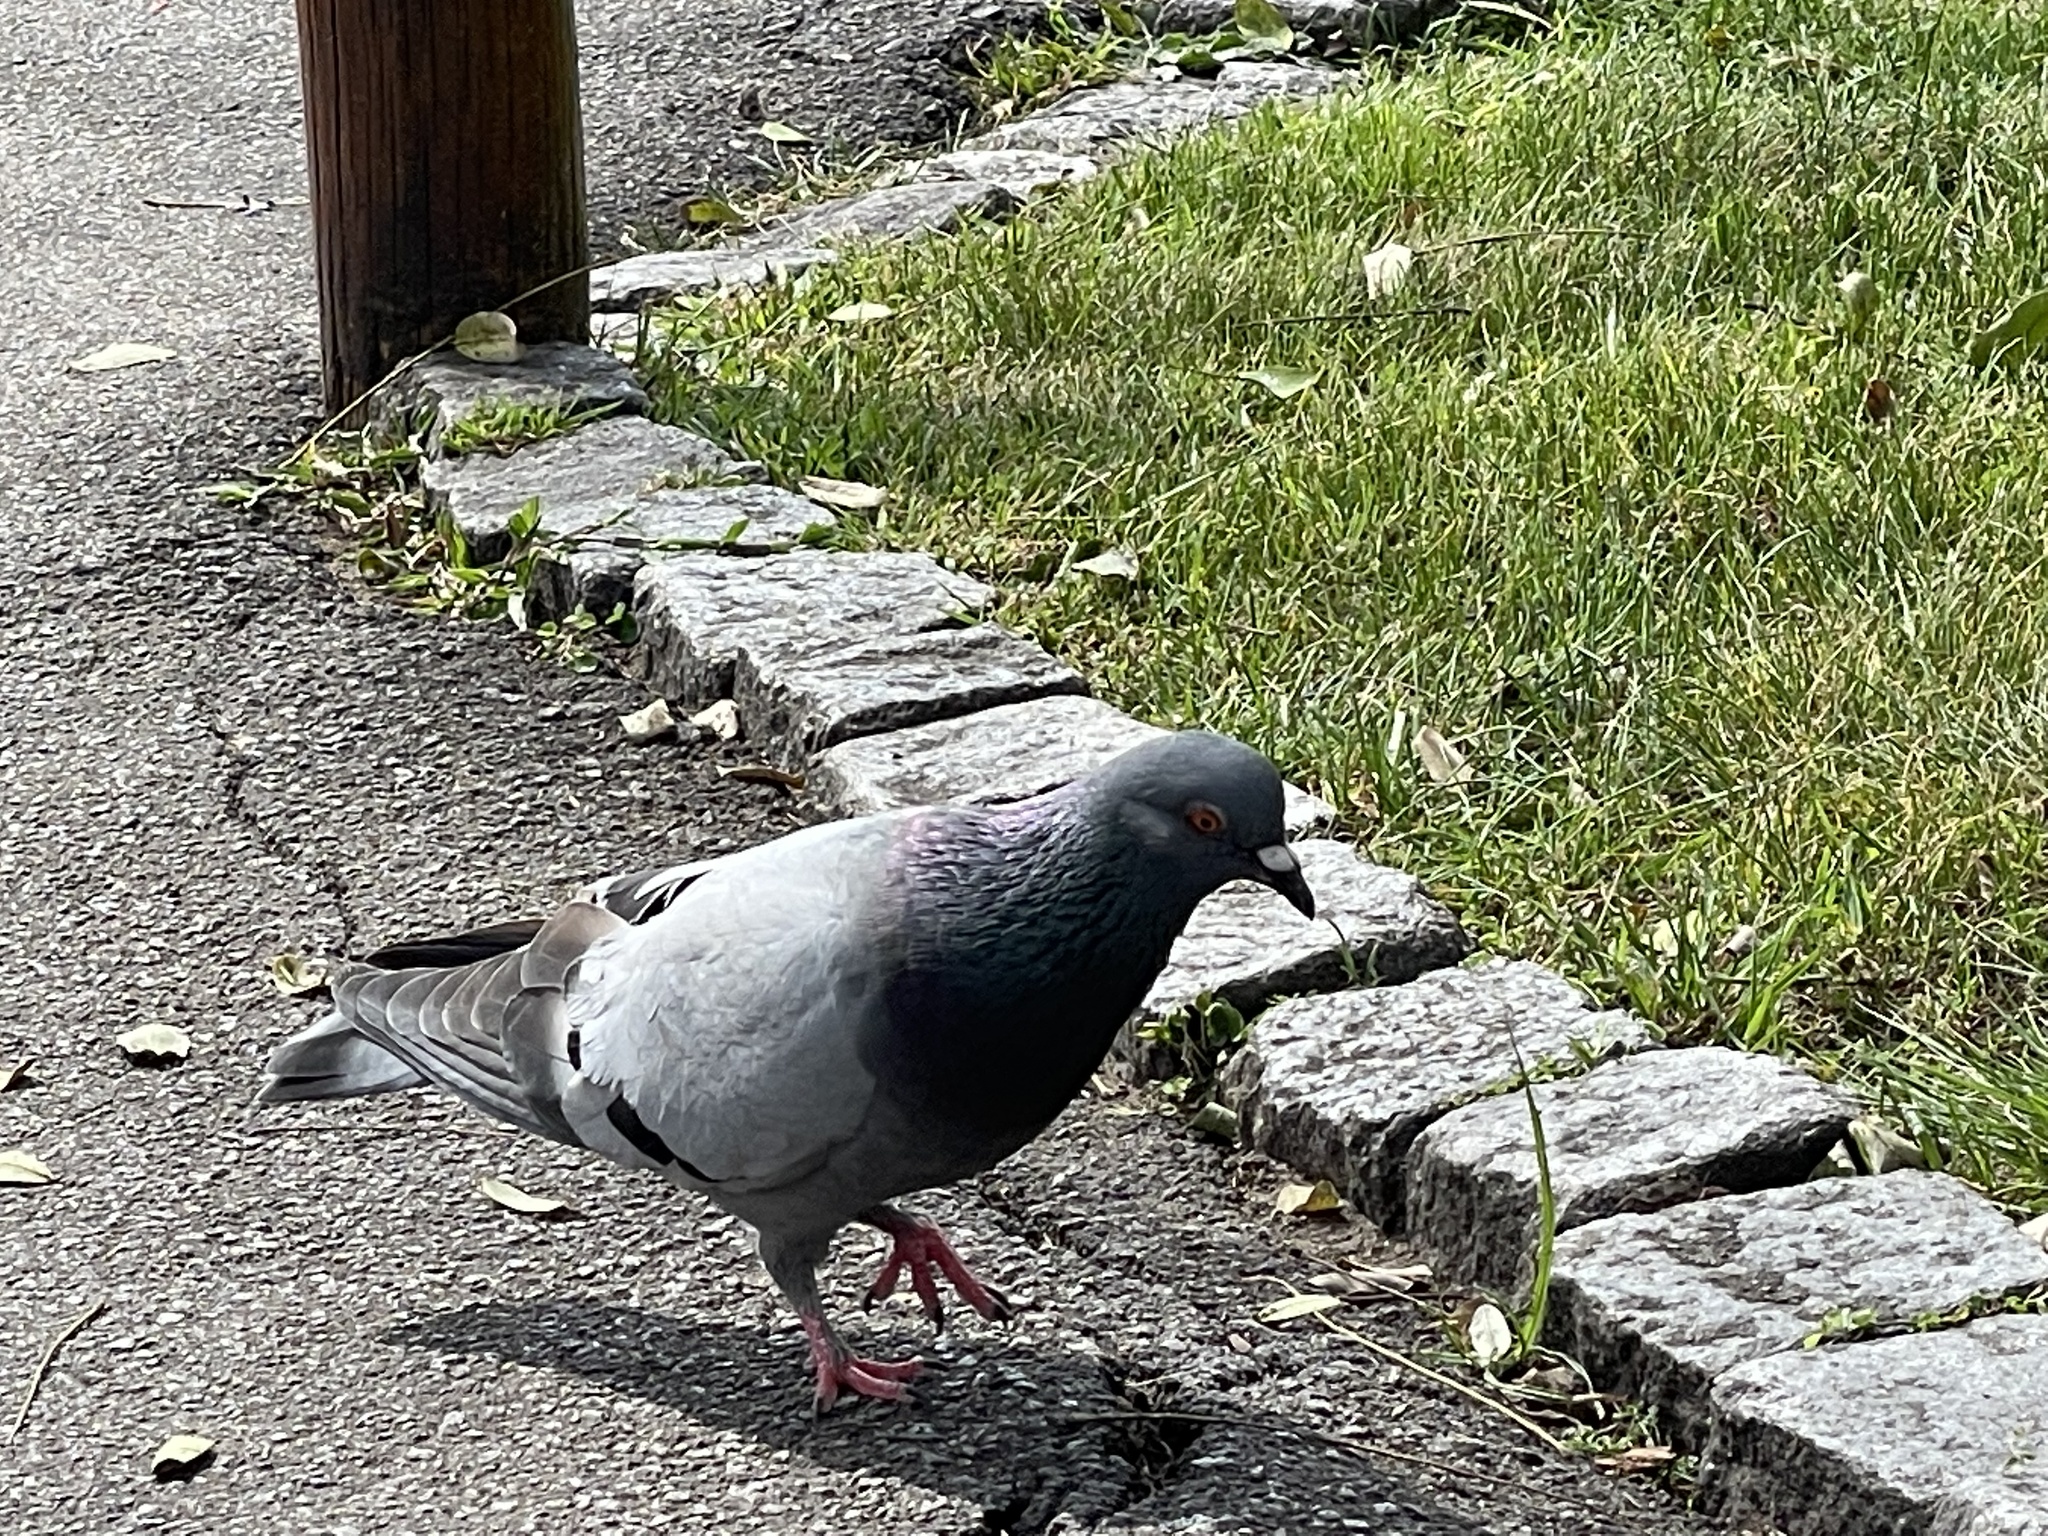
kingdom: Animalia
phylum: Chordata
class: Aves
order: Columbiformes
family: Columbidae
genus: Columba
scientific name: Columba livia
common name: Rock pigeon
